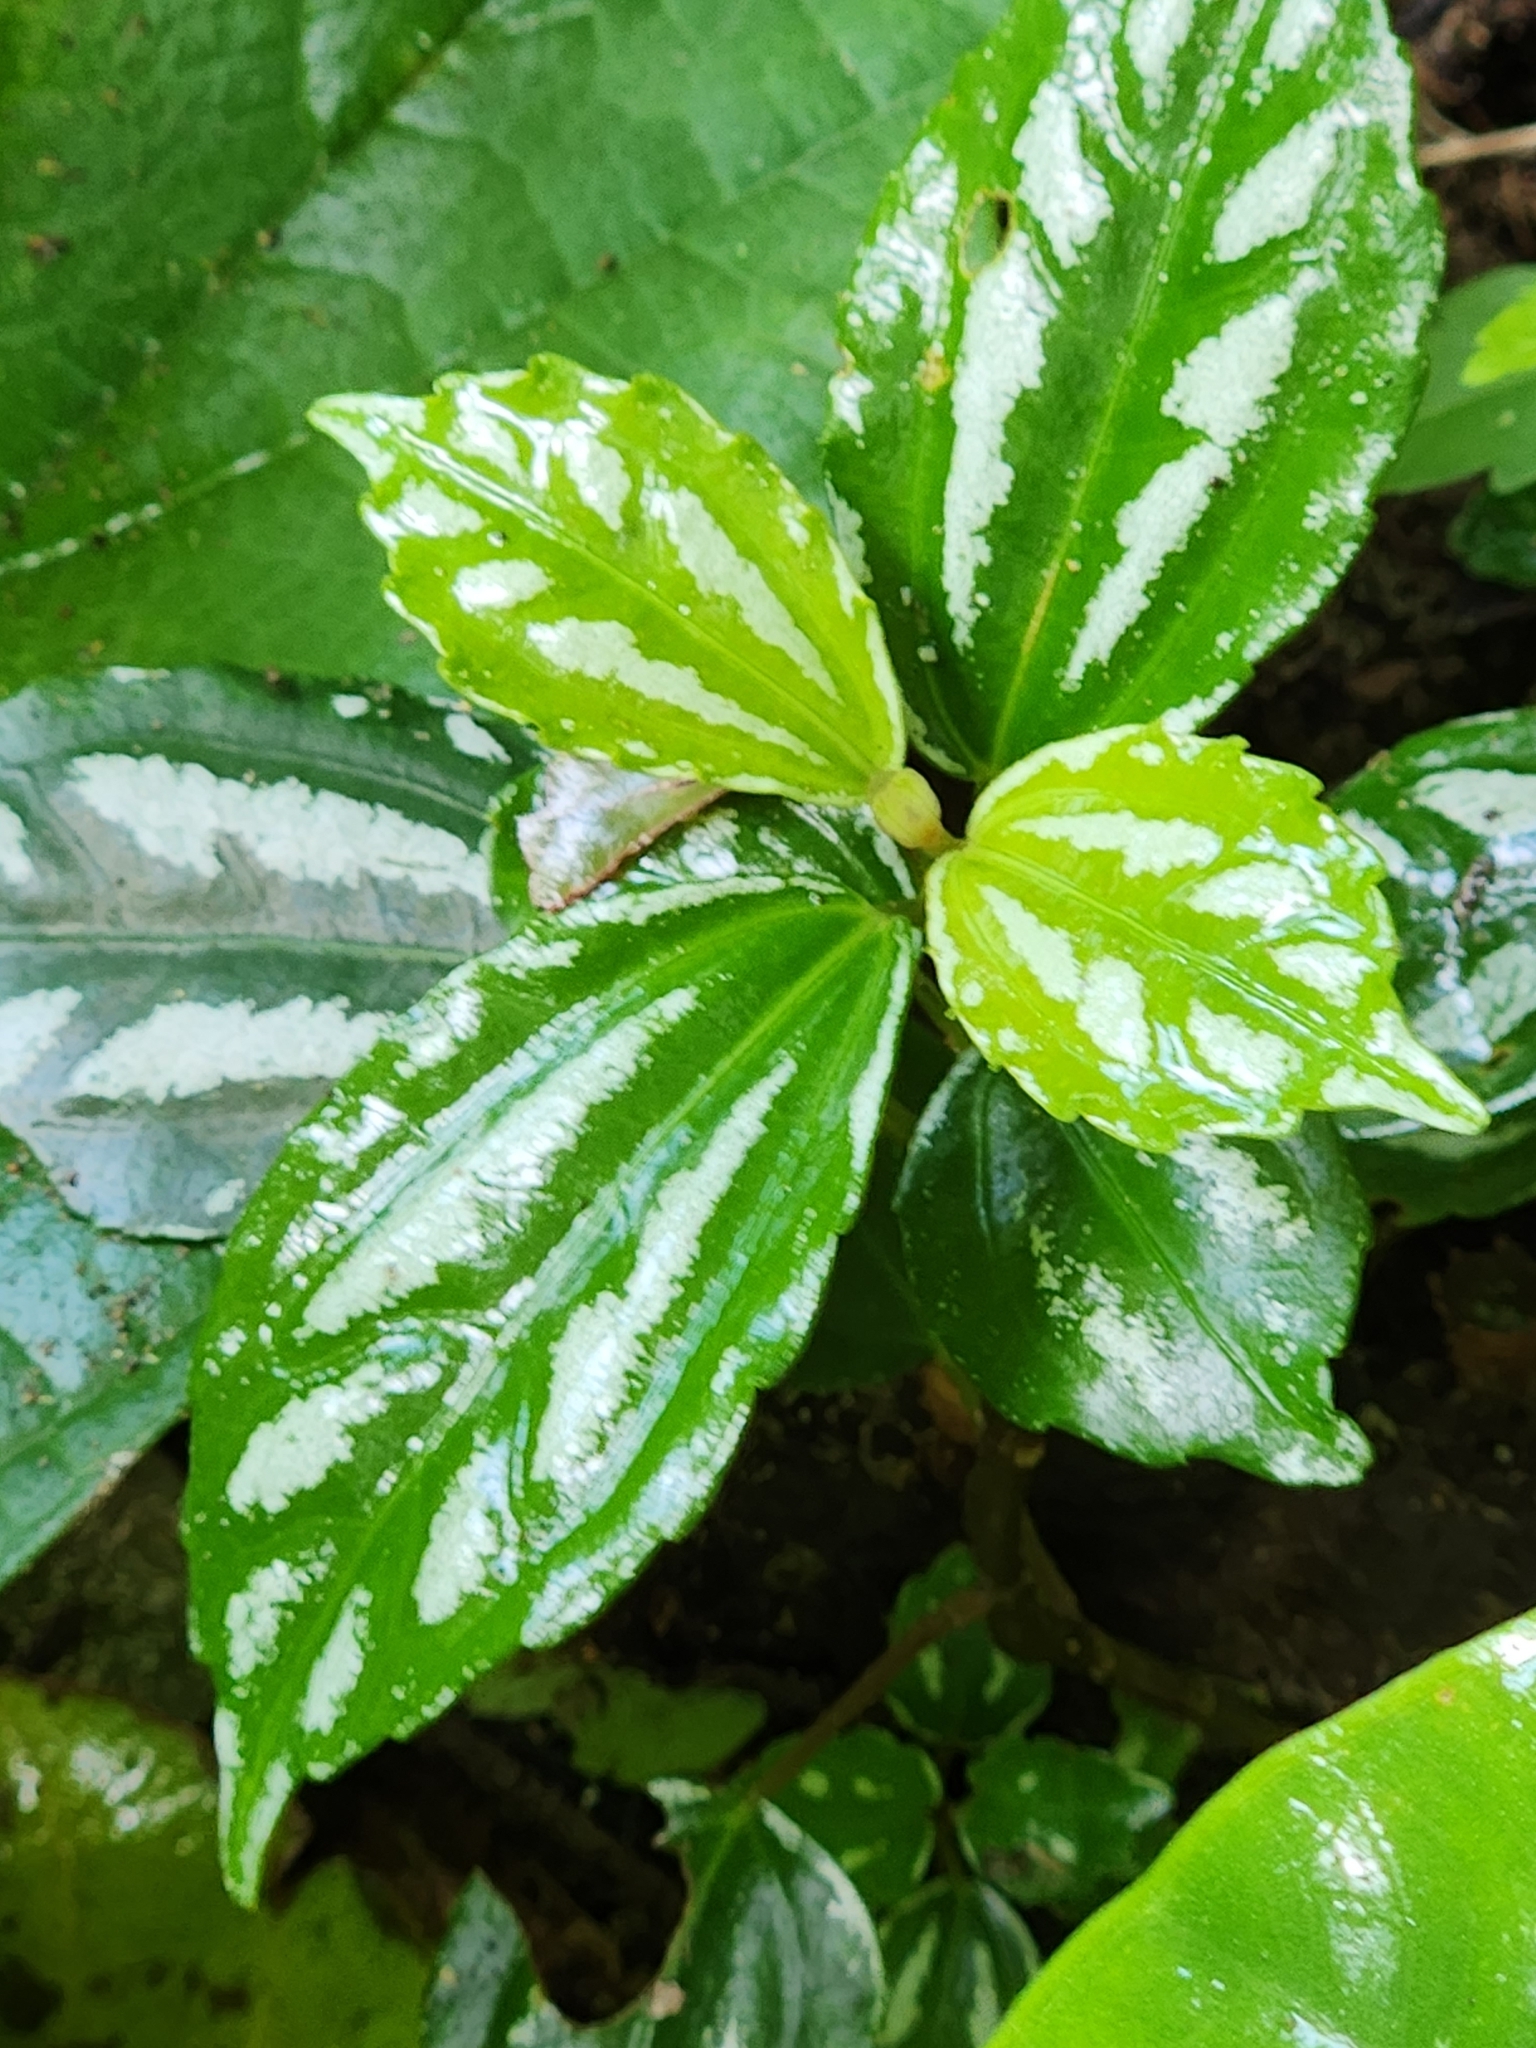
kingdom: Plantae
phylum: Tracheophyta
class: Magnoliopsida
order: Rosales
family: Urticaceae
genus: Pilea
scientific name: Pilea cadierei
